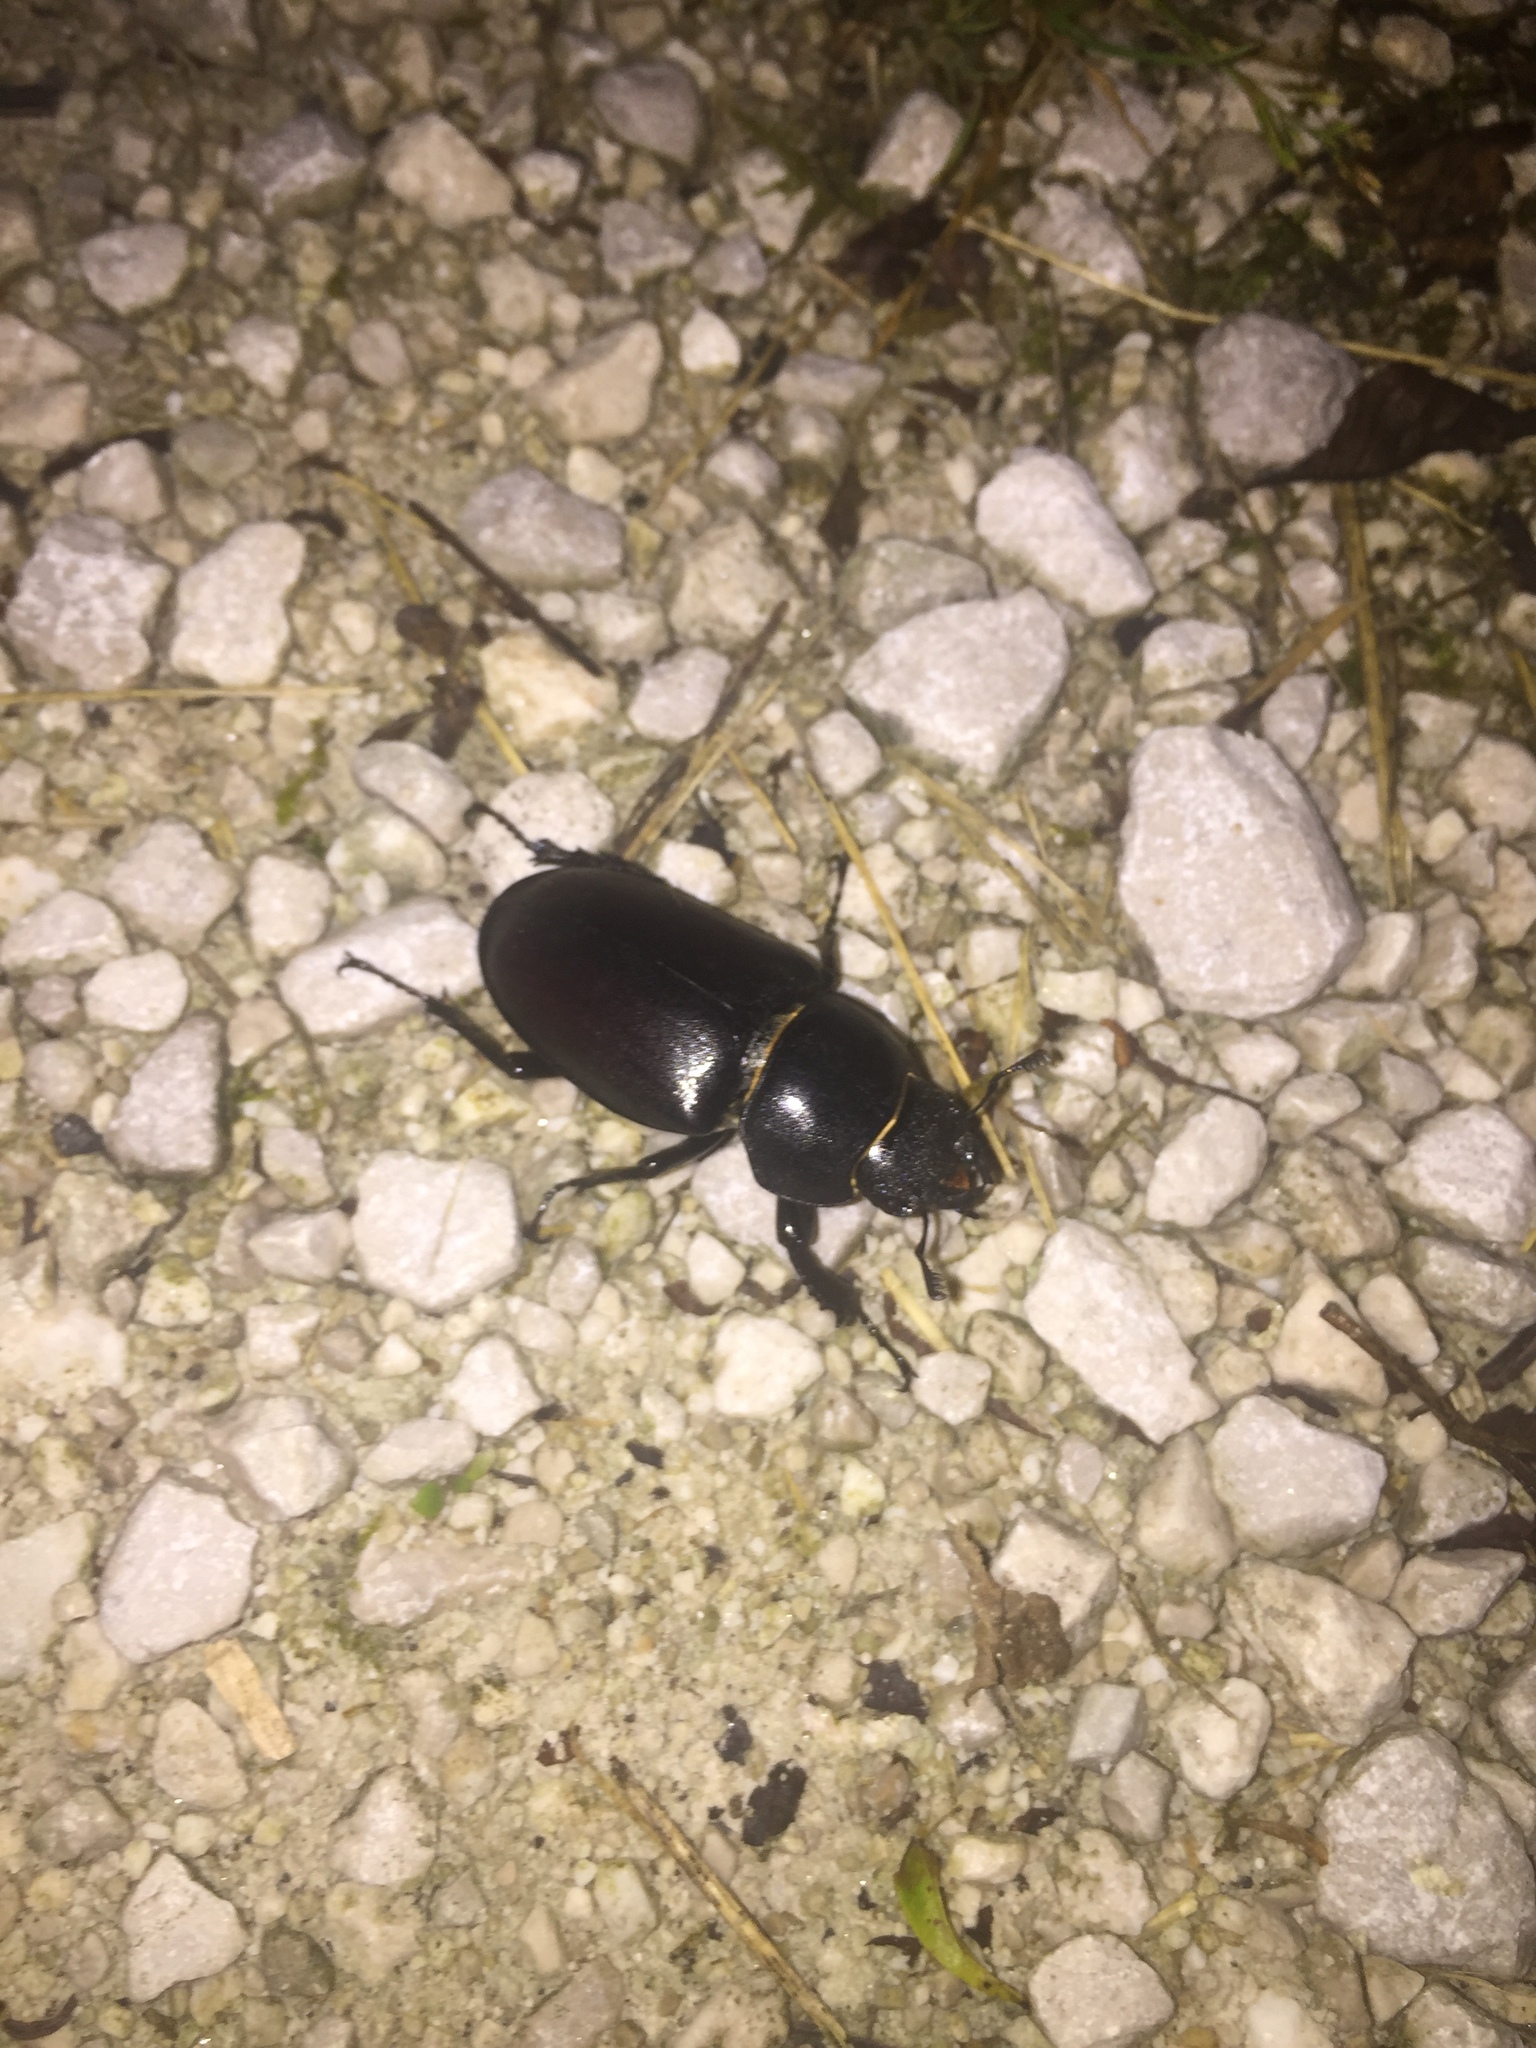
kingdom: Animalia
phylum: Arthropoda
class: Insecta
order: Coleoptera
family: Lucanidae
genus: Lucanus
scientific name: Lucanus cervus
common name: Stag beetle
